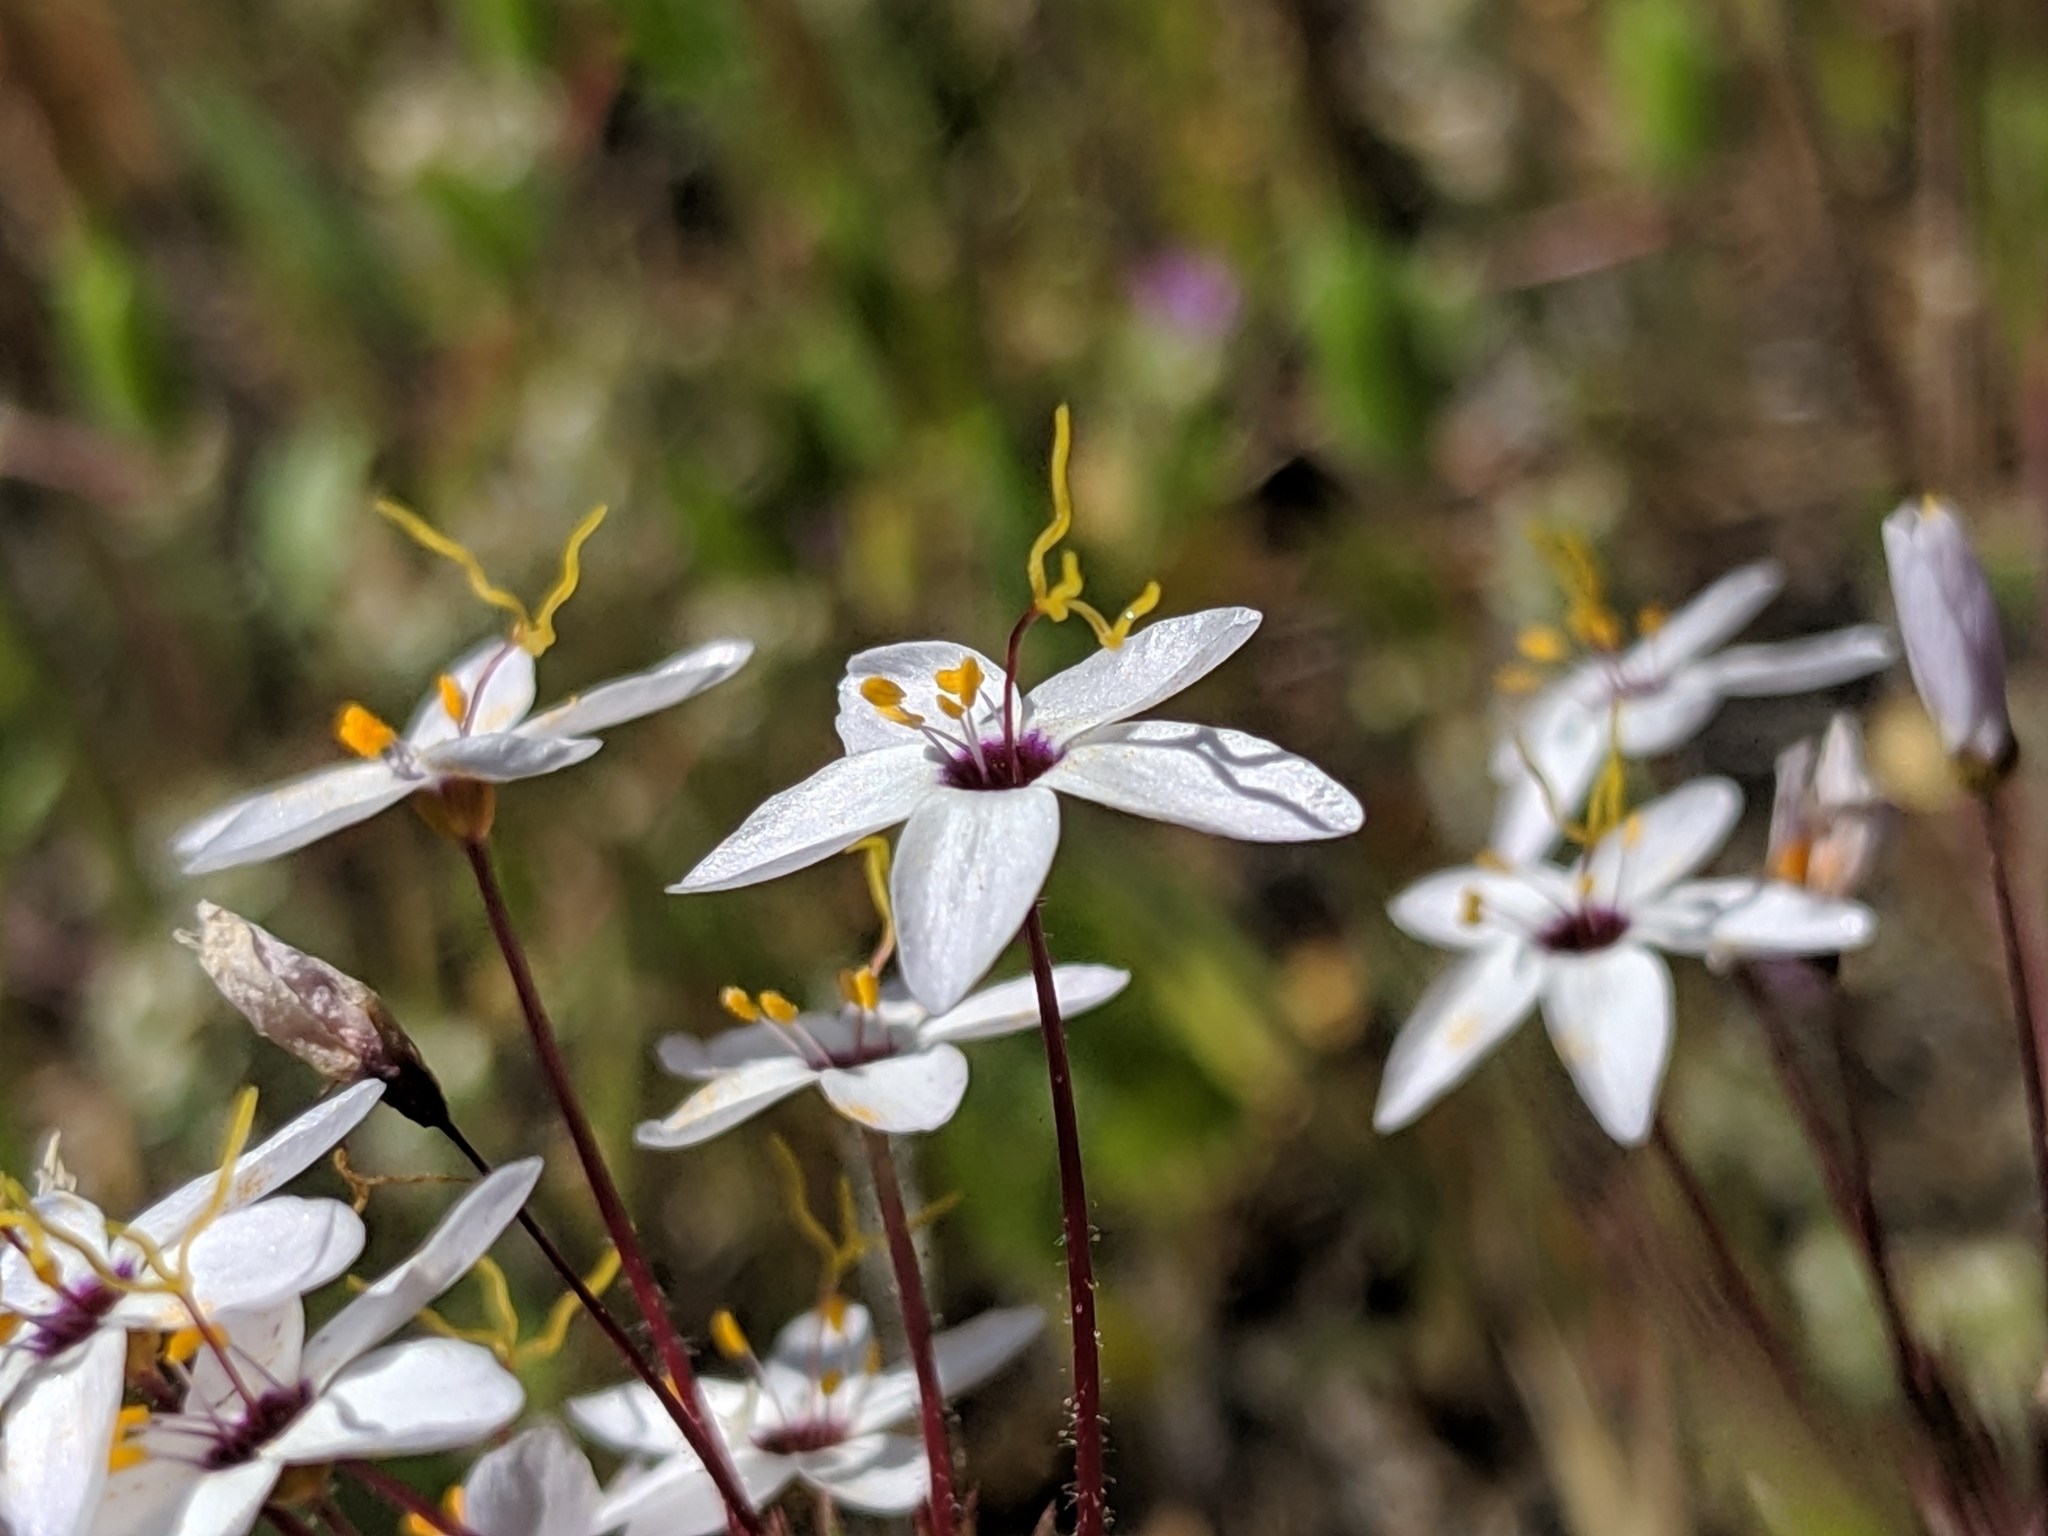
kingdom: Plantae
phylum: Tracheophyta
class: Magnoliopsida
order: Ericales
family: Polemoniaceae
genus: Leptosiphon
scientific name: Leptosiphon parviflorus
